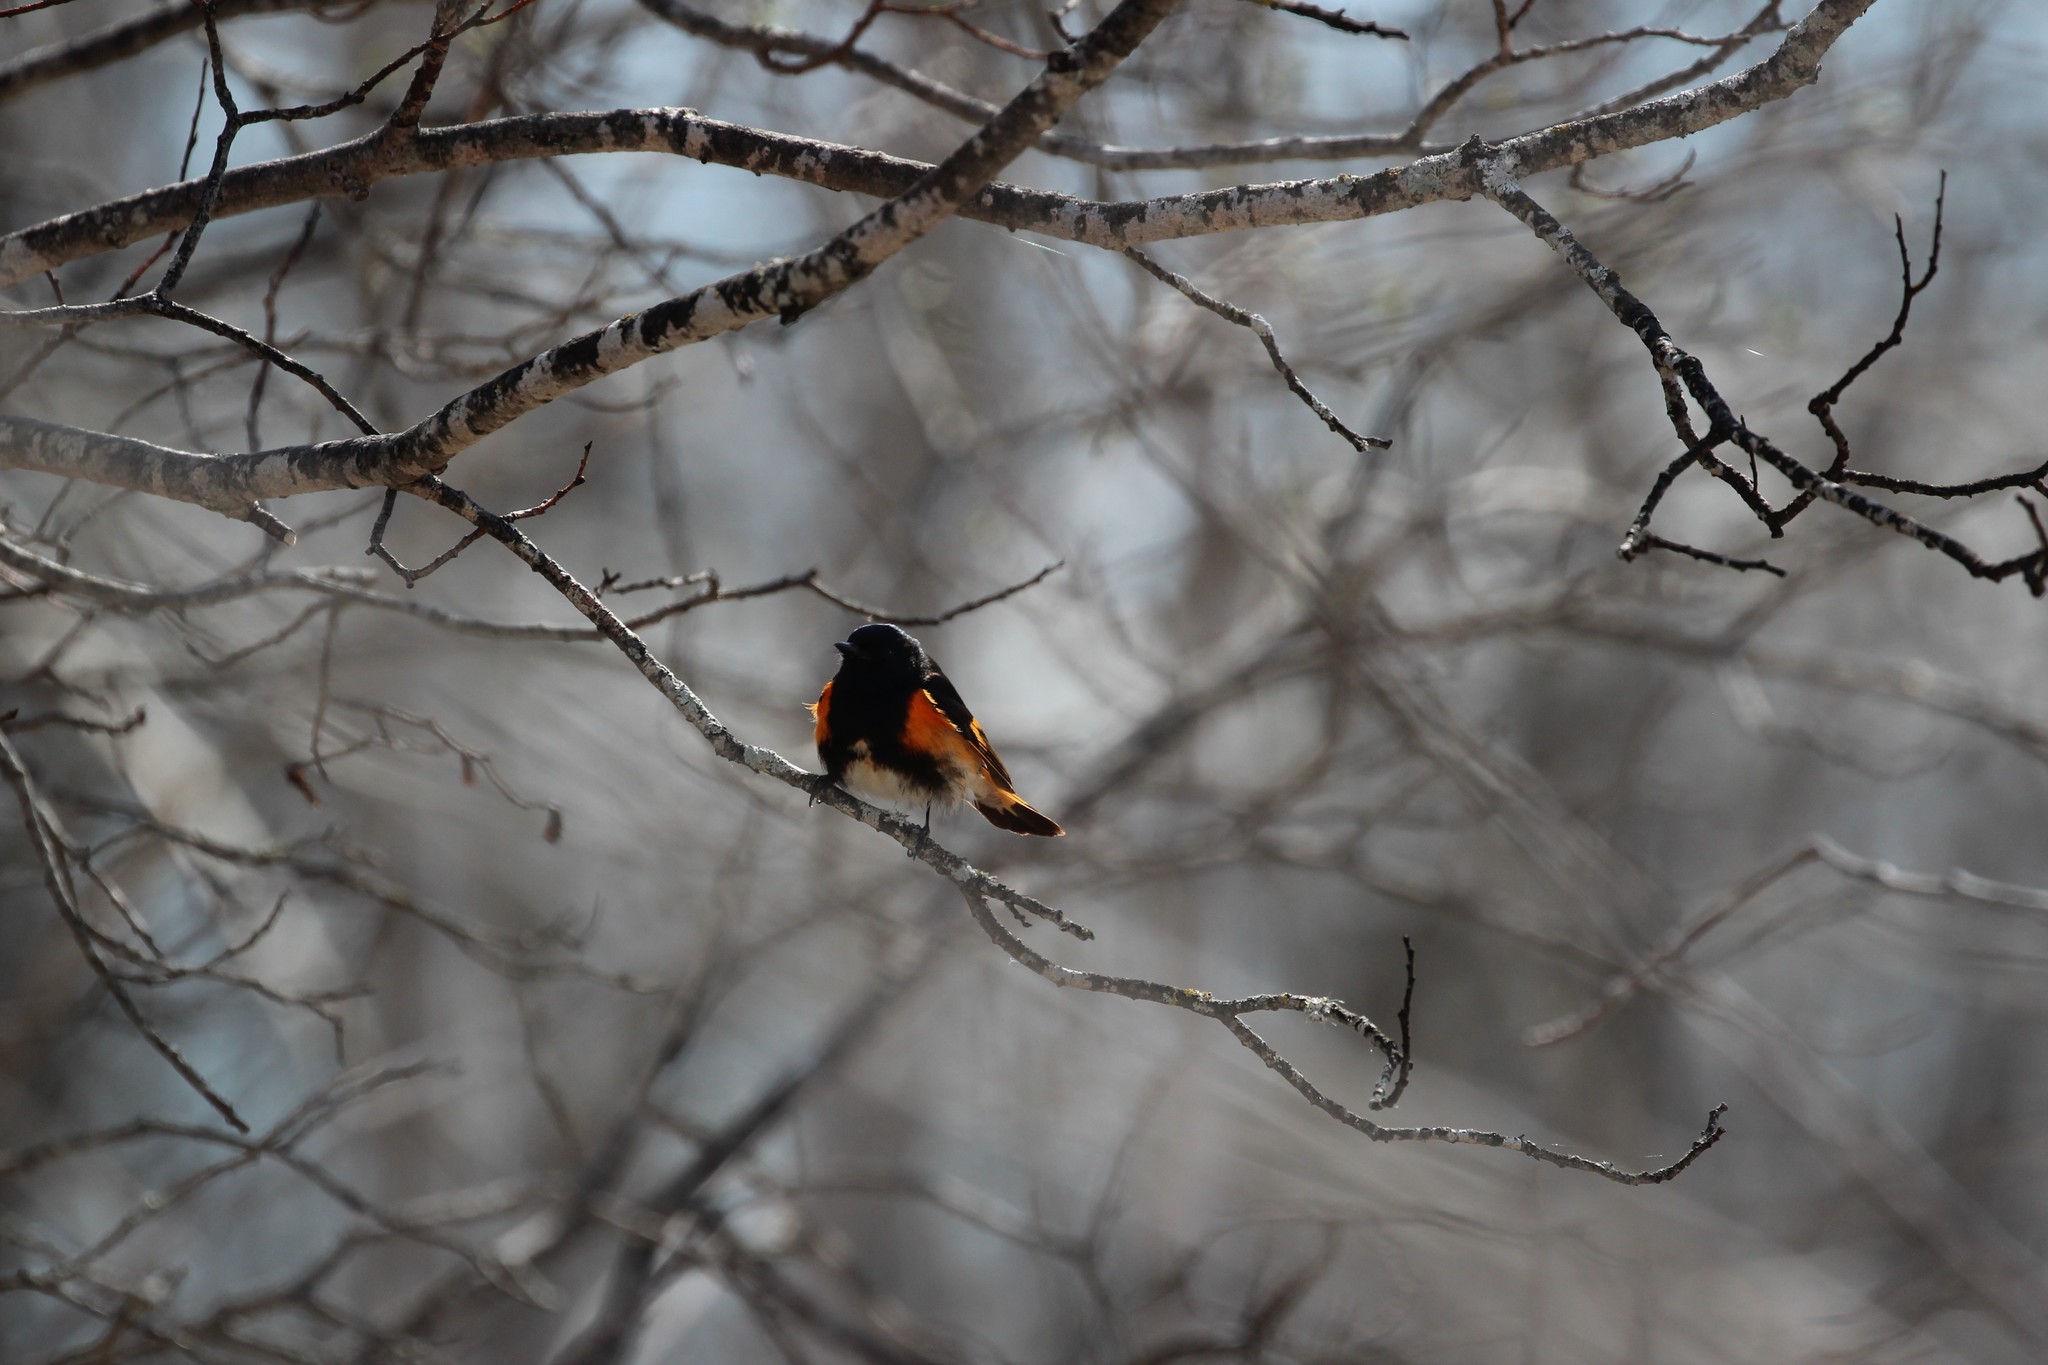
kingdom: Animalia
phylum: Chordata
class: Aves
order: Passeriformes
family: Parulidae
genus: Setophaga
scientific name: Setophaga ruticilla
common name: American redstart
